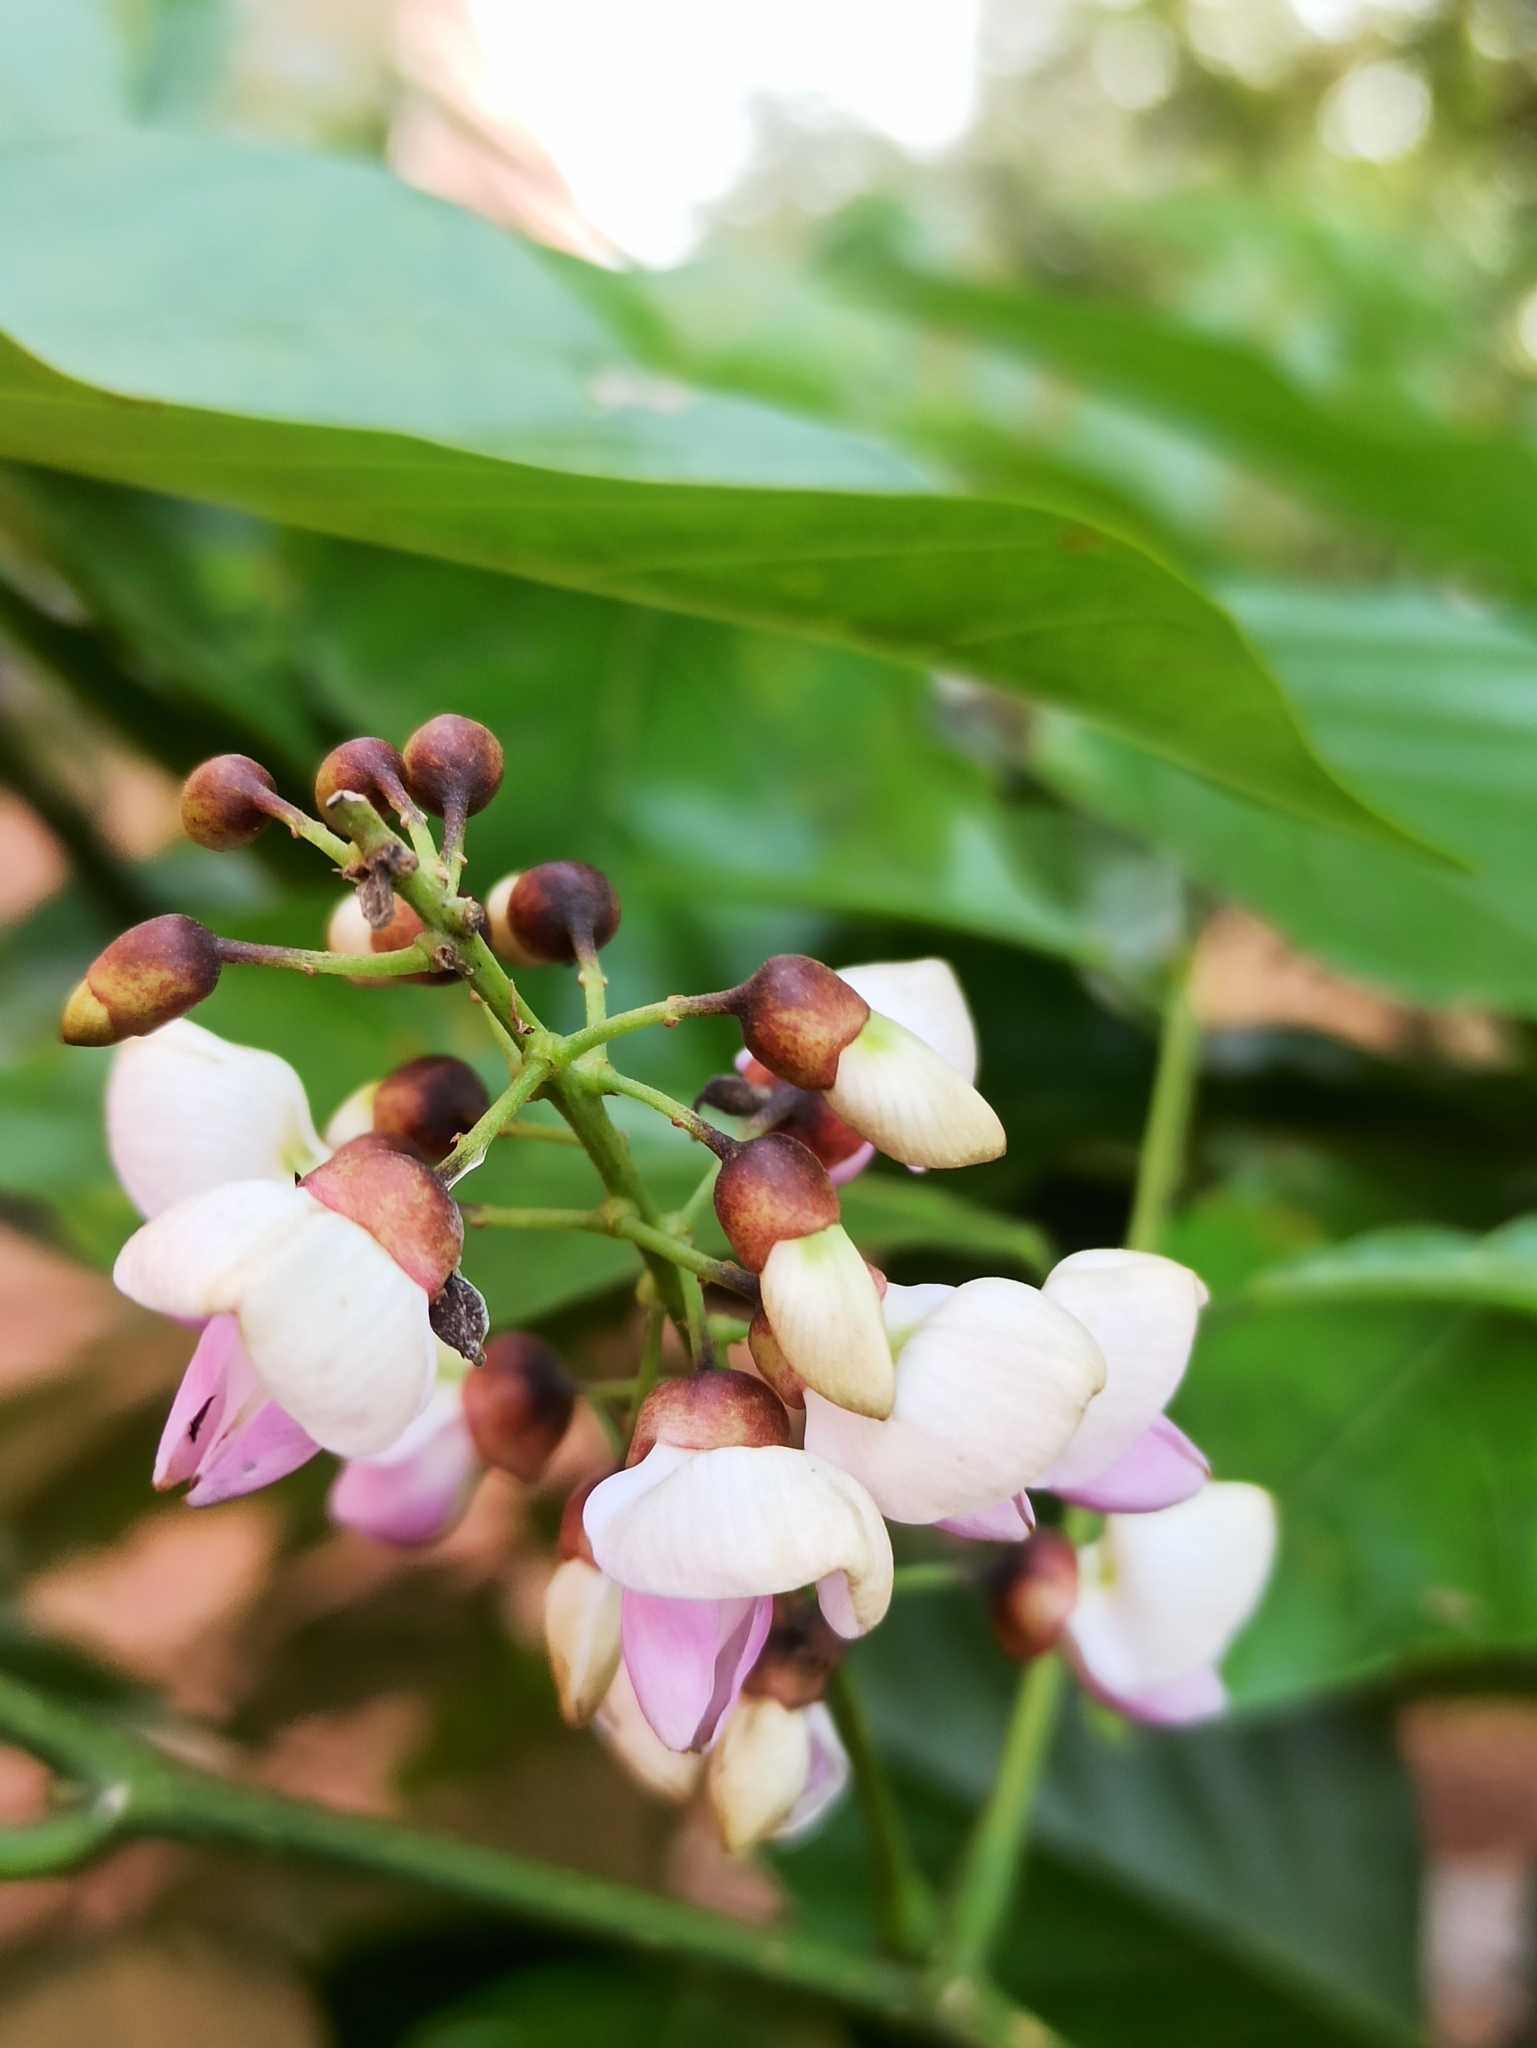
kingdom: Plantae
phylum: Tracheophyta
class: Magnoliopsida
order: Fabales
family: Fabaceae
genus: Pongamia
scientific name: Pongamia pinnata
